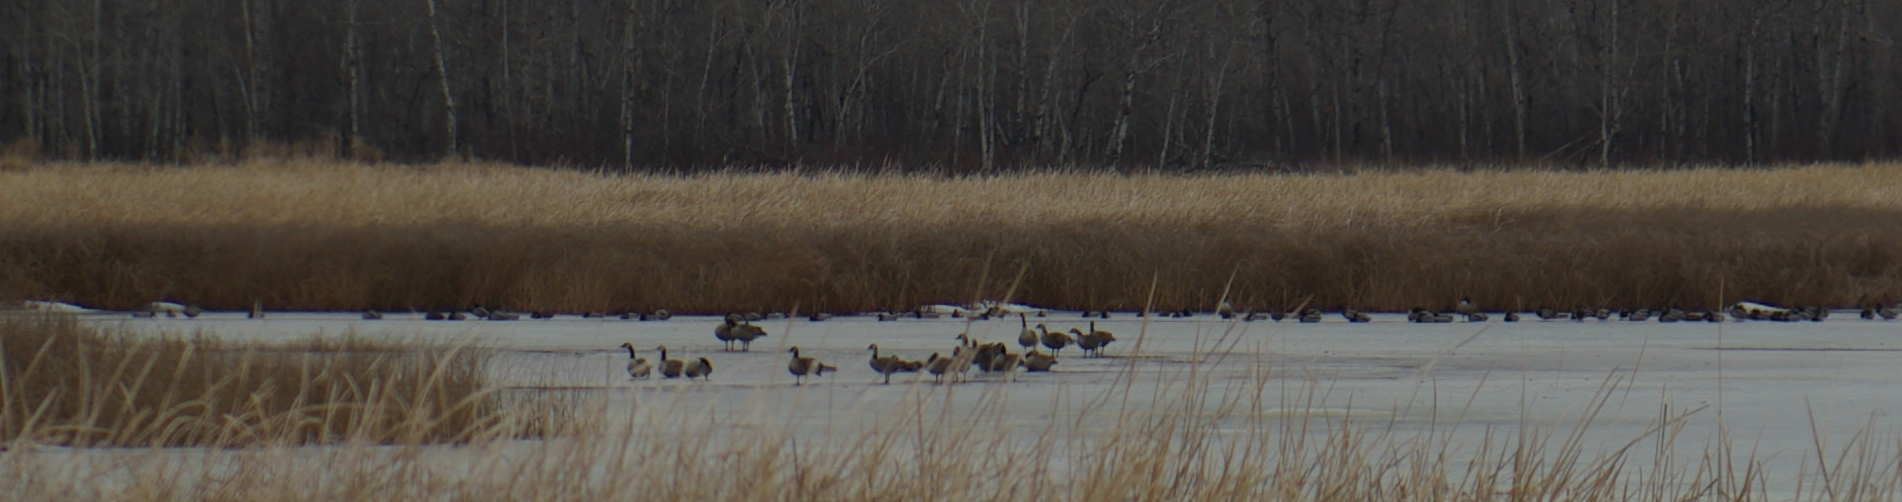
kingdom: Animalia
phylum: Chordata
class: Aves
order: Anseriformes
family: Anatidae
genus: Branta
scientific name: Branta canadensis
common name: Canada goose
